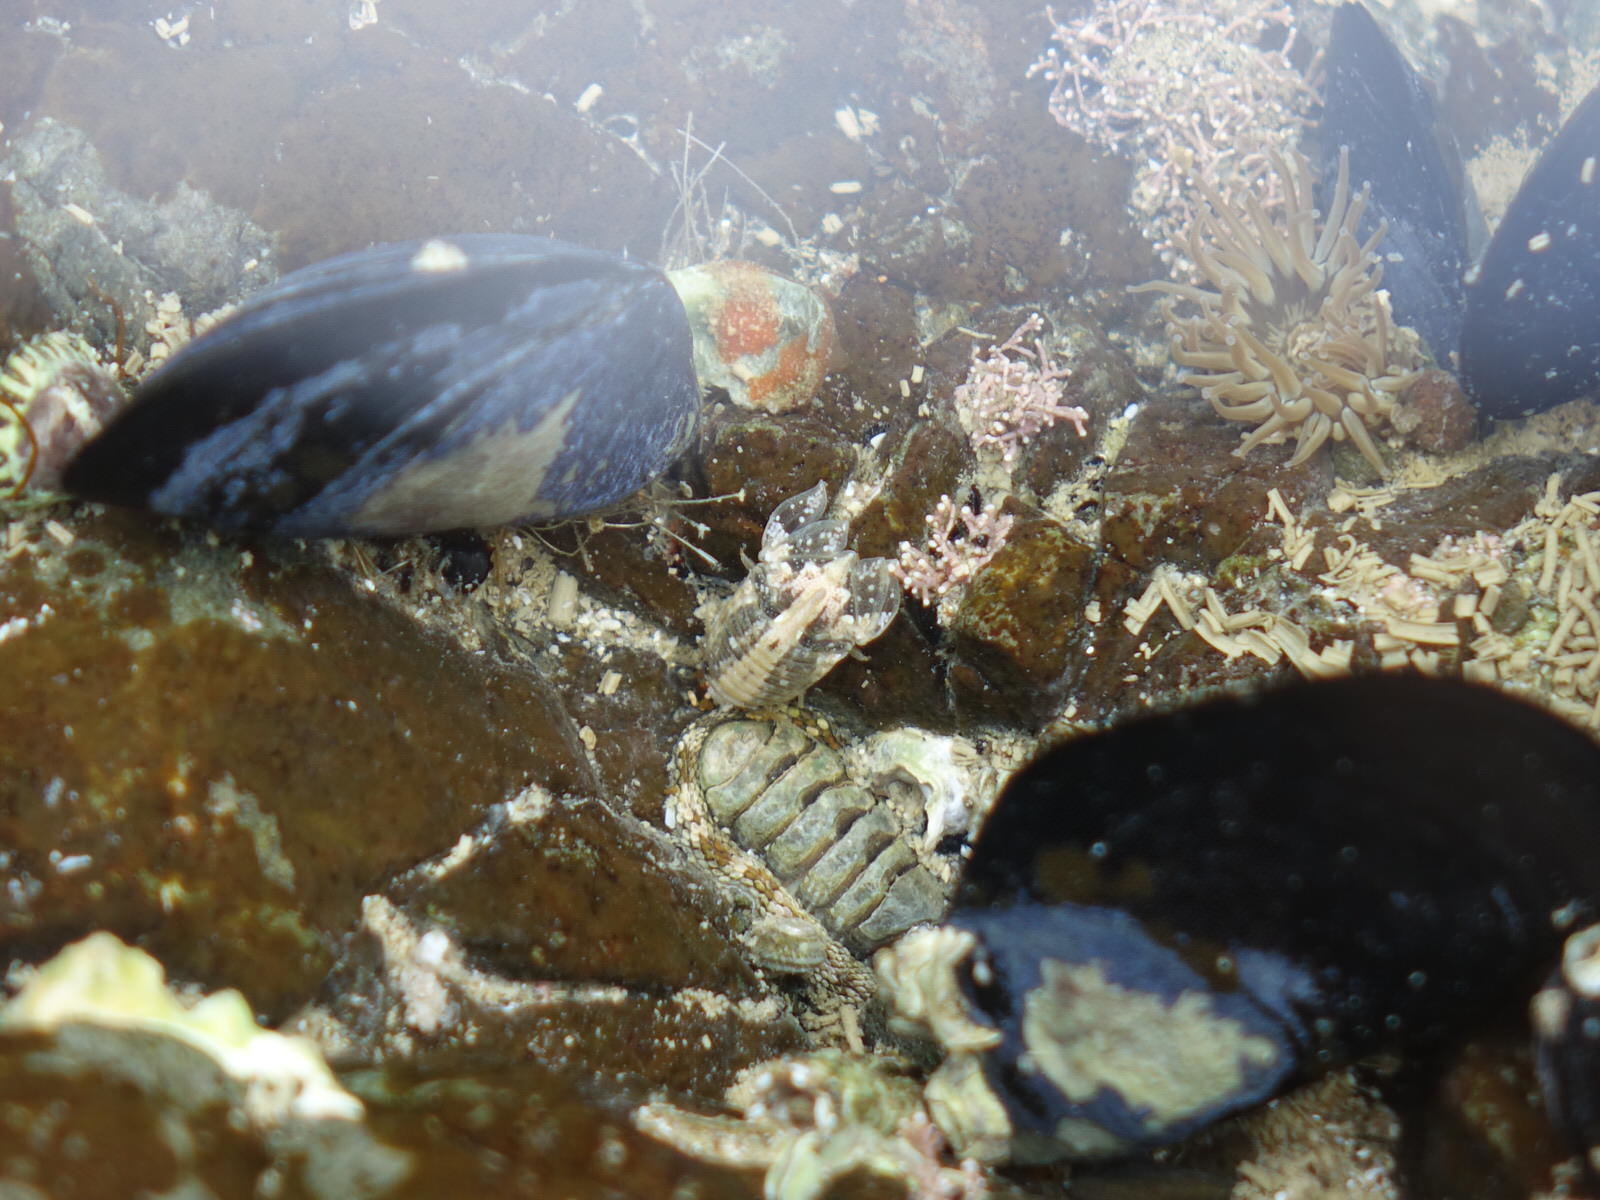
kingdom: Animalia
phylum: Arthropoda
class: Malacostraca
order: Isopoda
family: Sphaeromatidae
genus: Isocladus
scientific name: Isocladus armatus
